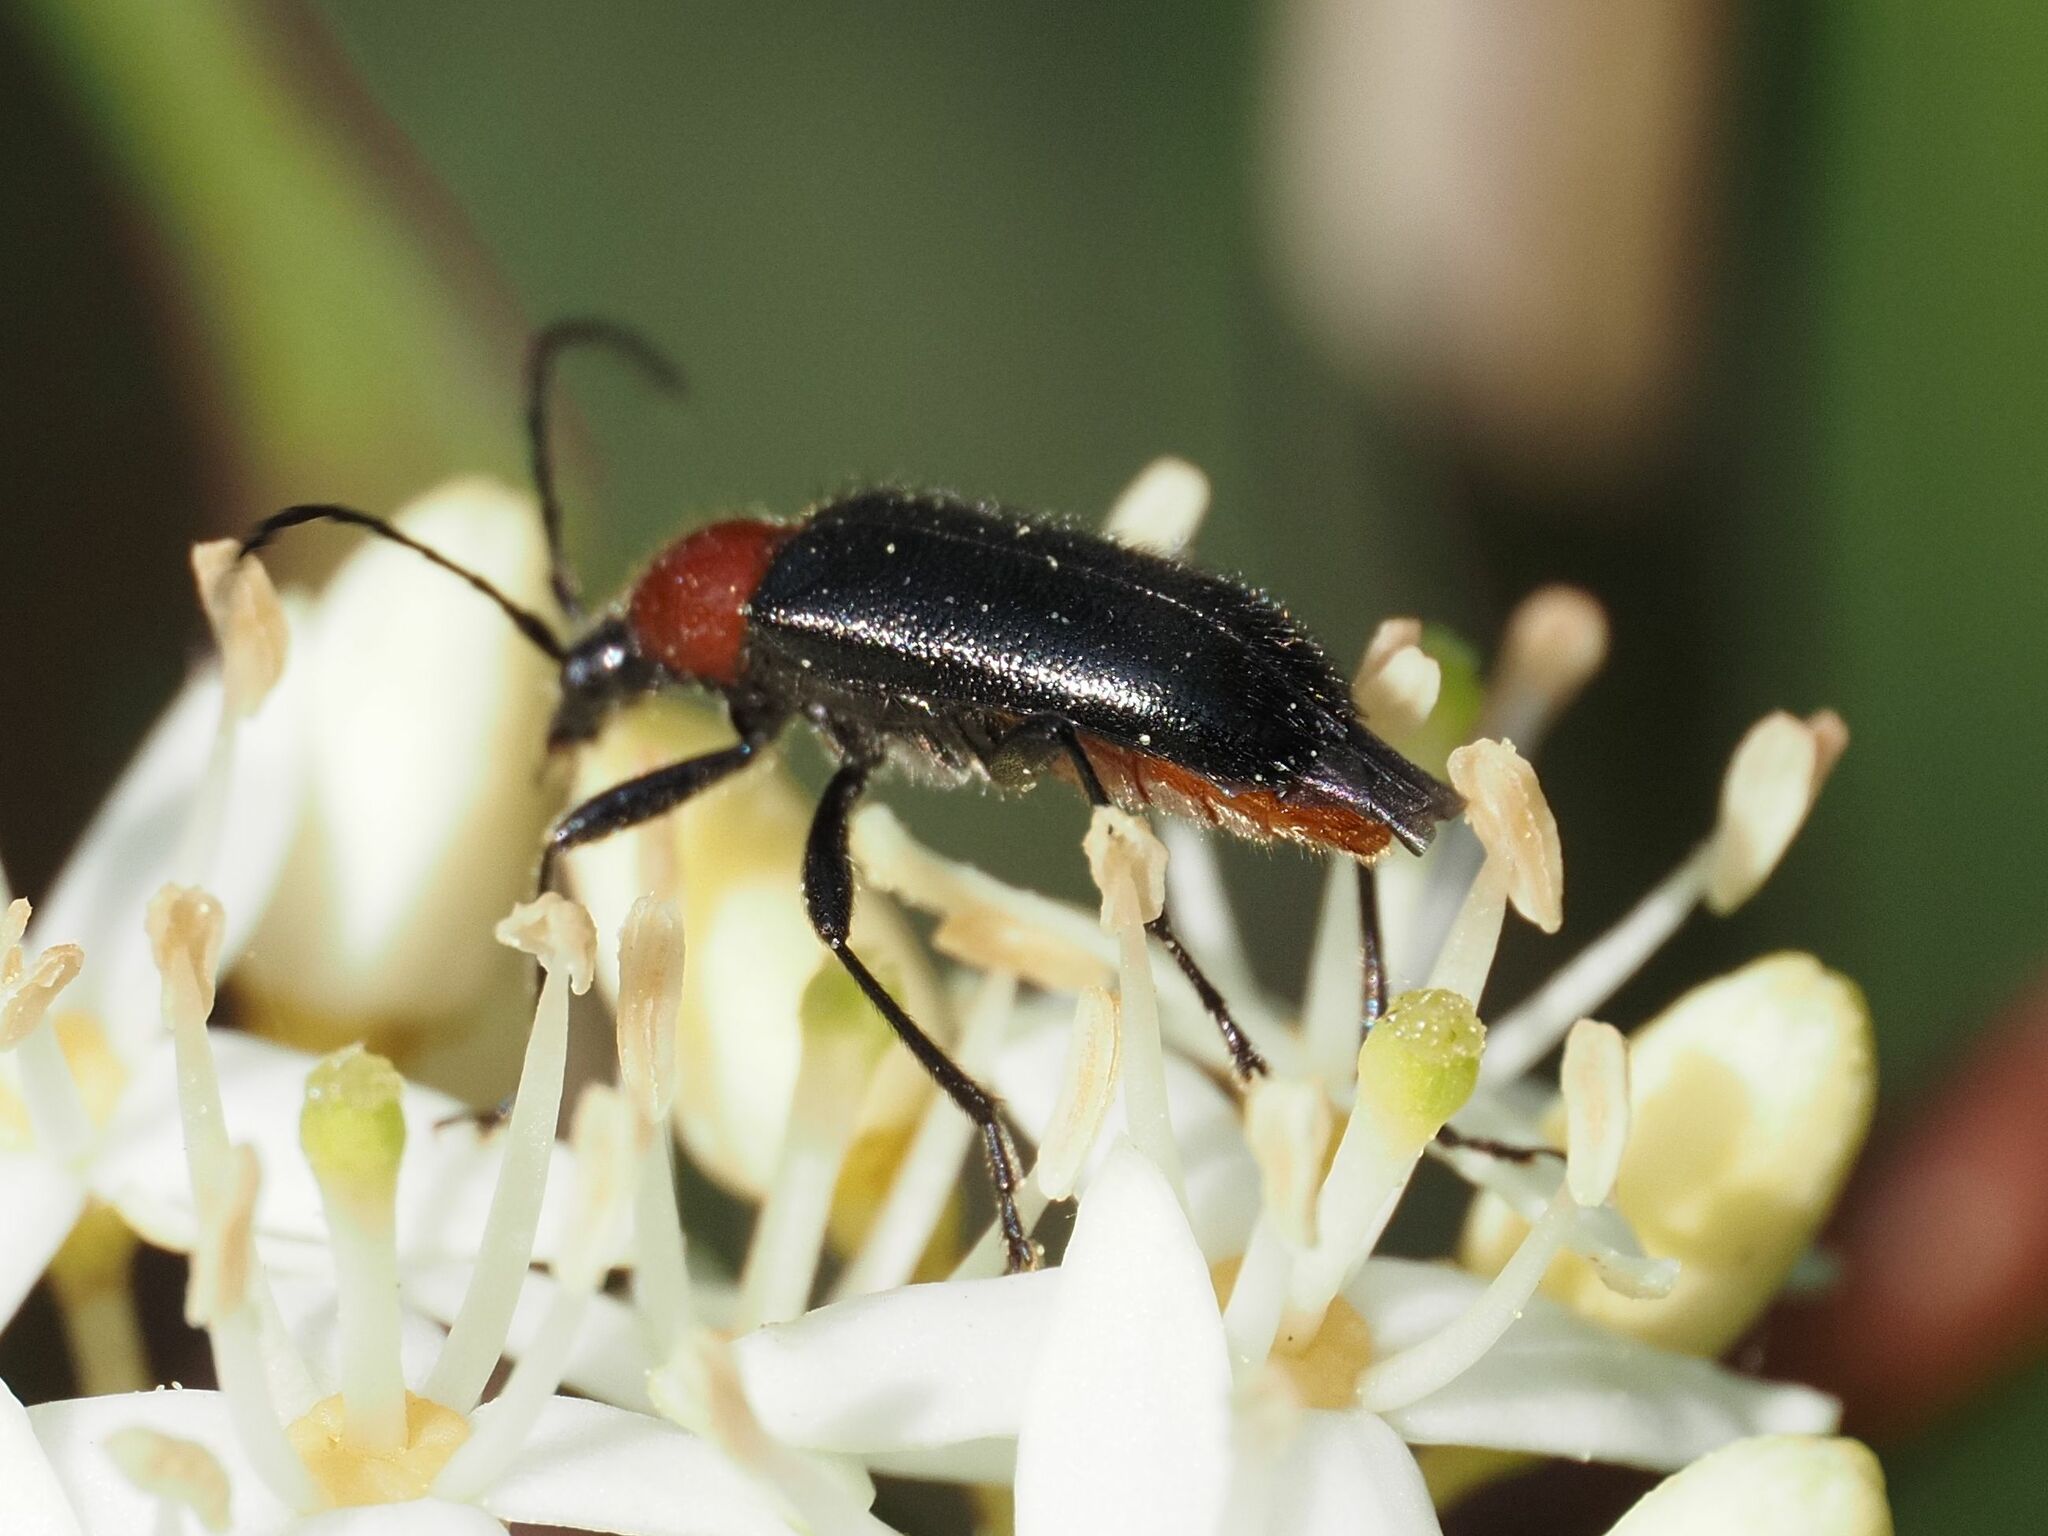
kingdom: Animalia
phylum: Arthropoda
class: Insecta
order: Coleoptera
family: Cerambycidae
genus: Dinoptera
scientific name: Dinoptera collaris
